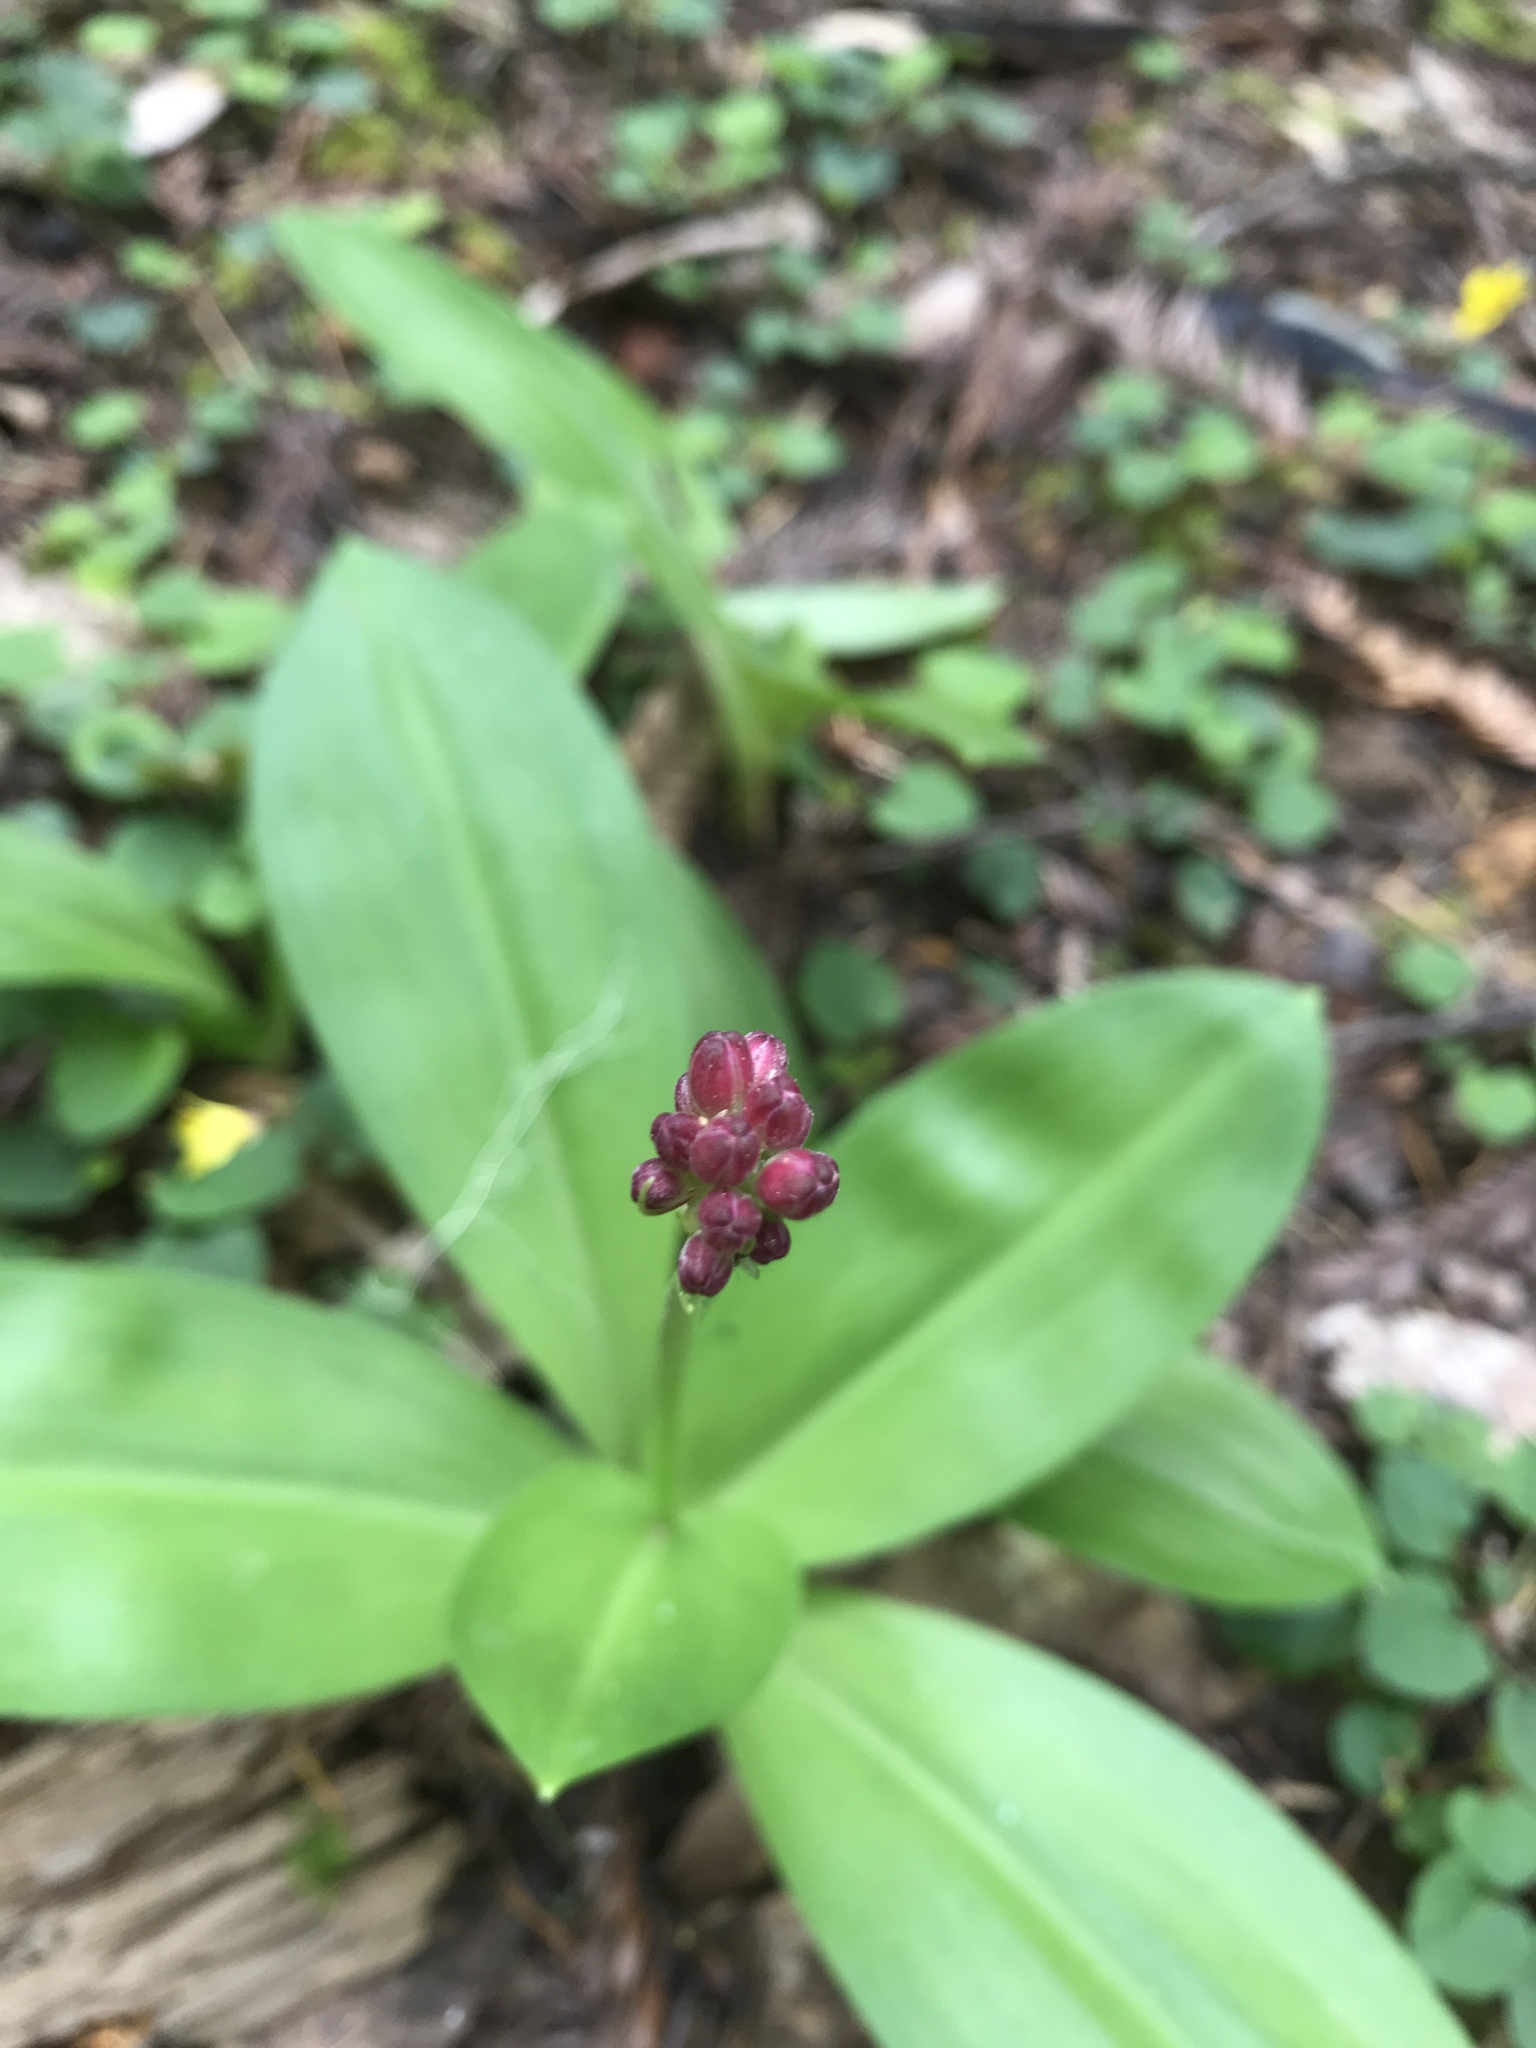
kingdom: Plantae
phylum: Tracheophyta
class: Liliopsida
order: Liliales
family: Liliaceae
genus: Clintonia
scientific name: Clintonia andrewsiana
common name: Red clintonia
